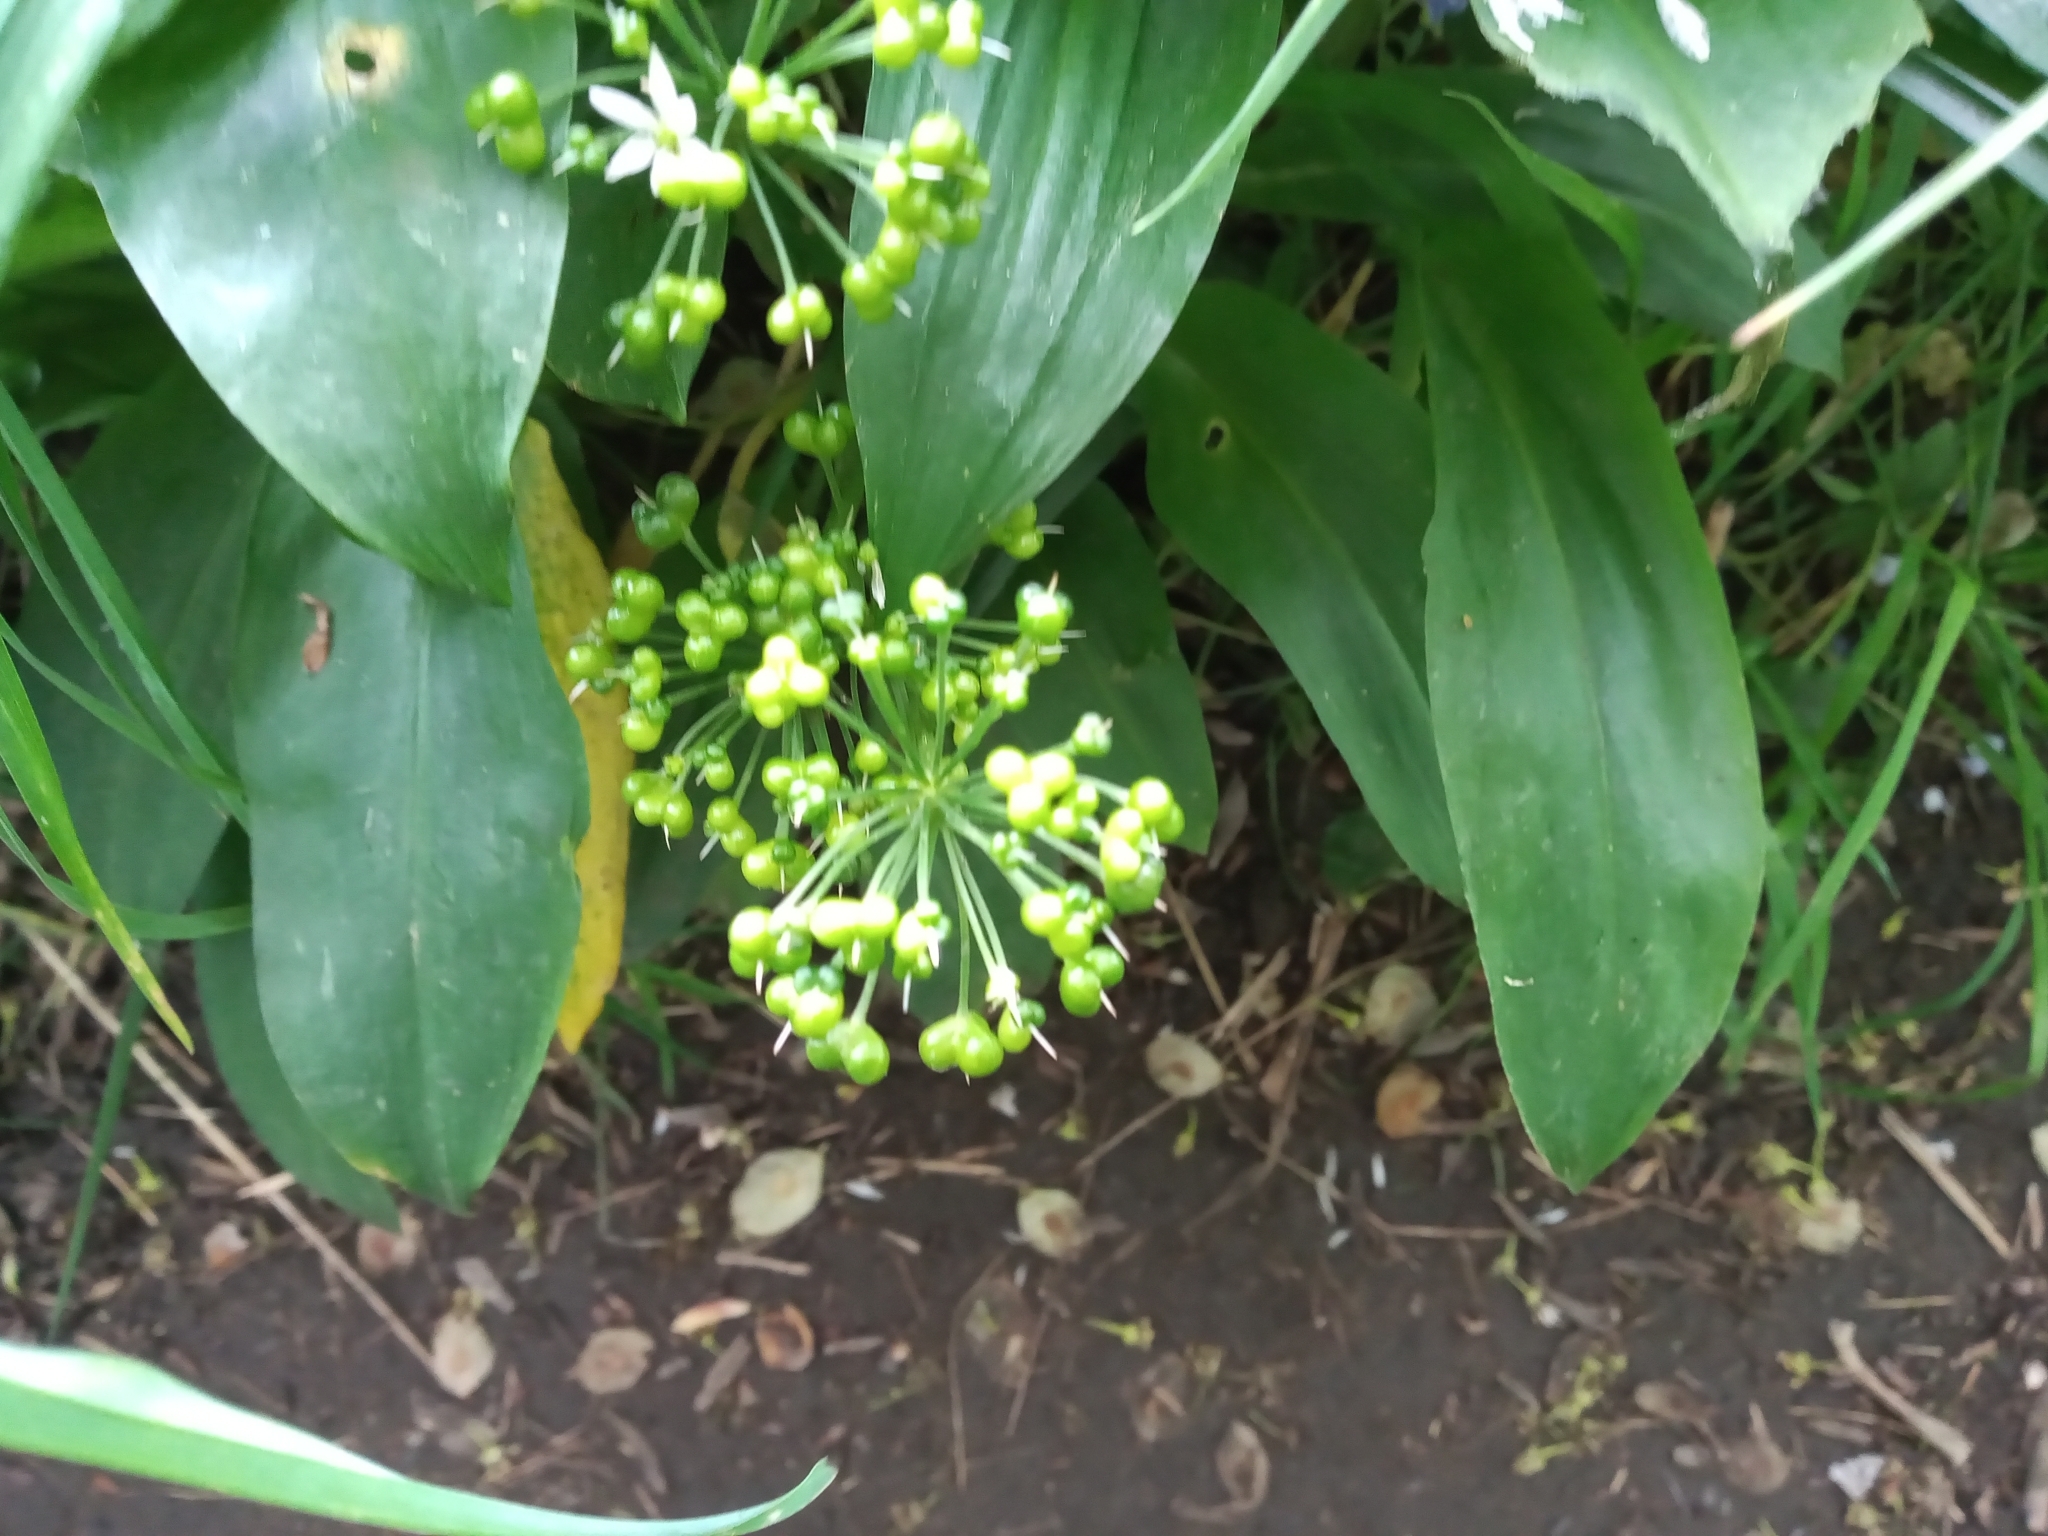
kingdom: Plantae
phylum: Tracheophyta
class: Liliopsida
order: Asparagales
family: Amaryllidaceae
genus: Allium
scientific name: Allium ursinum
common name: Ramsons
